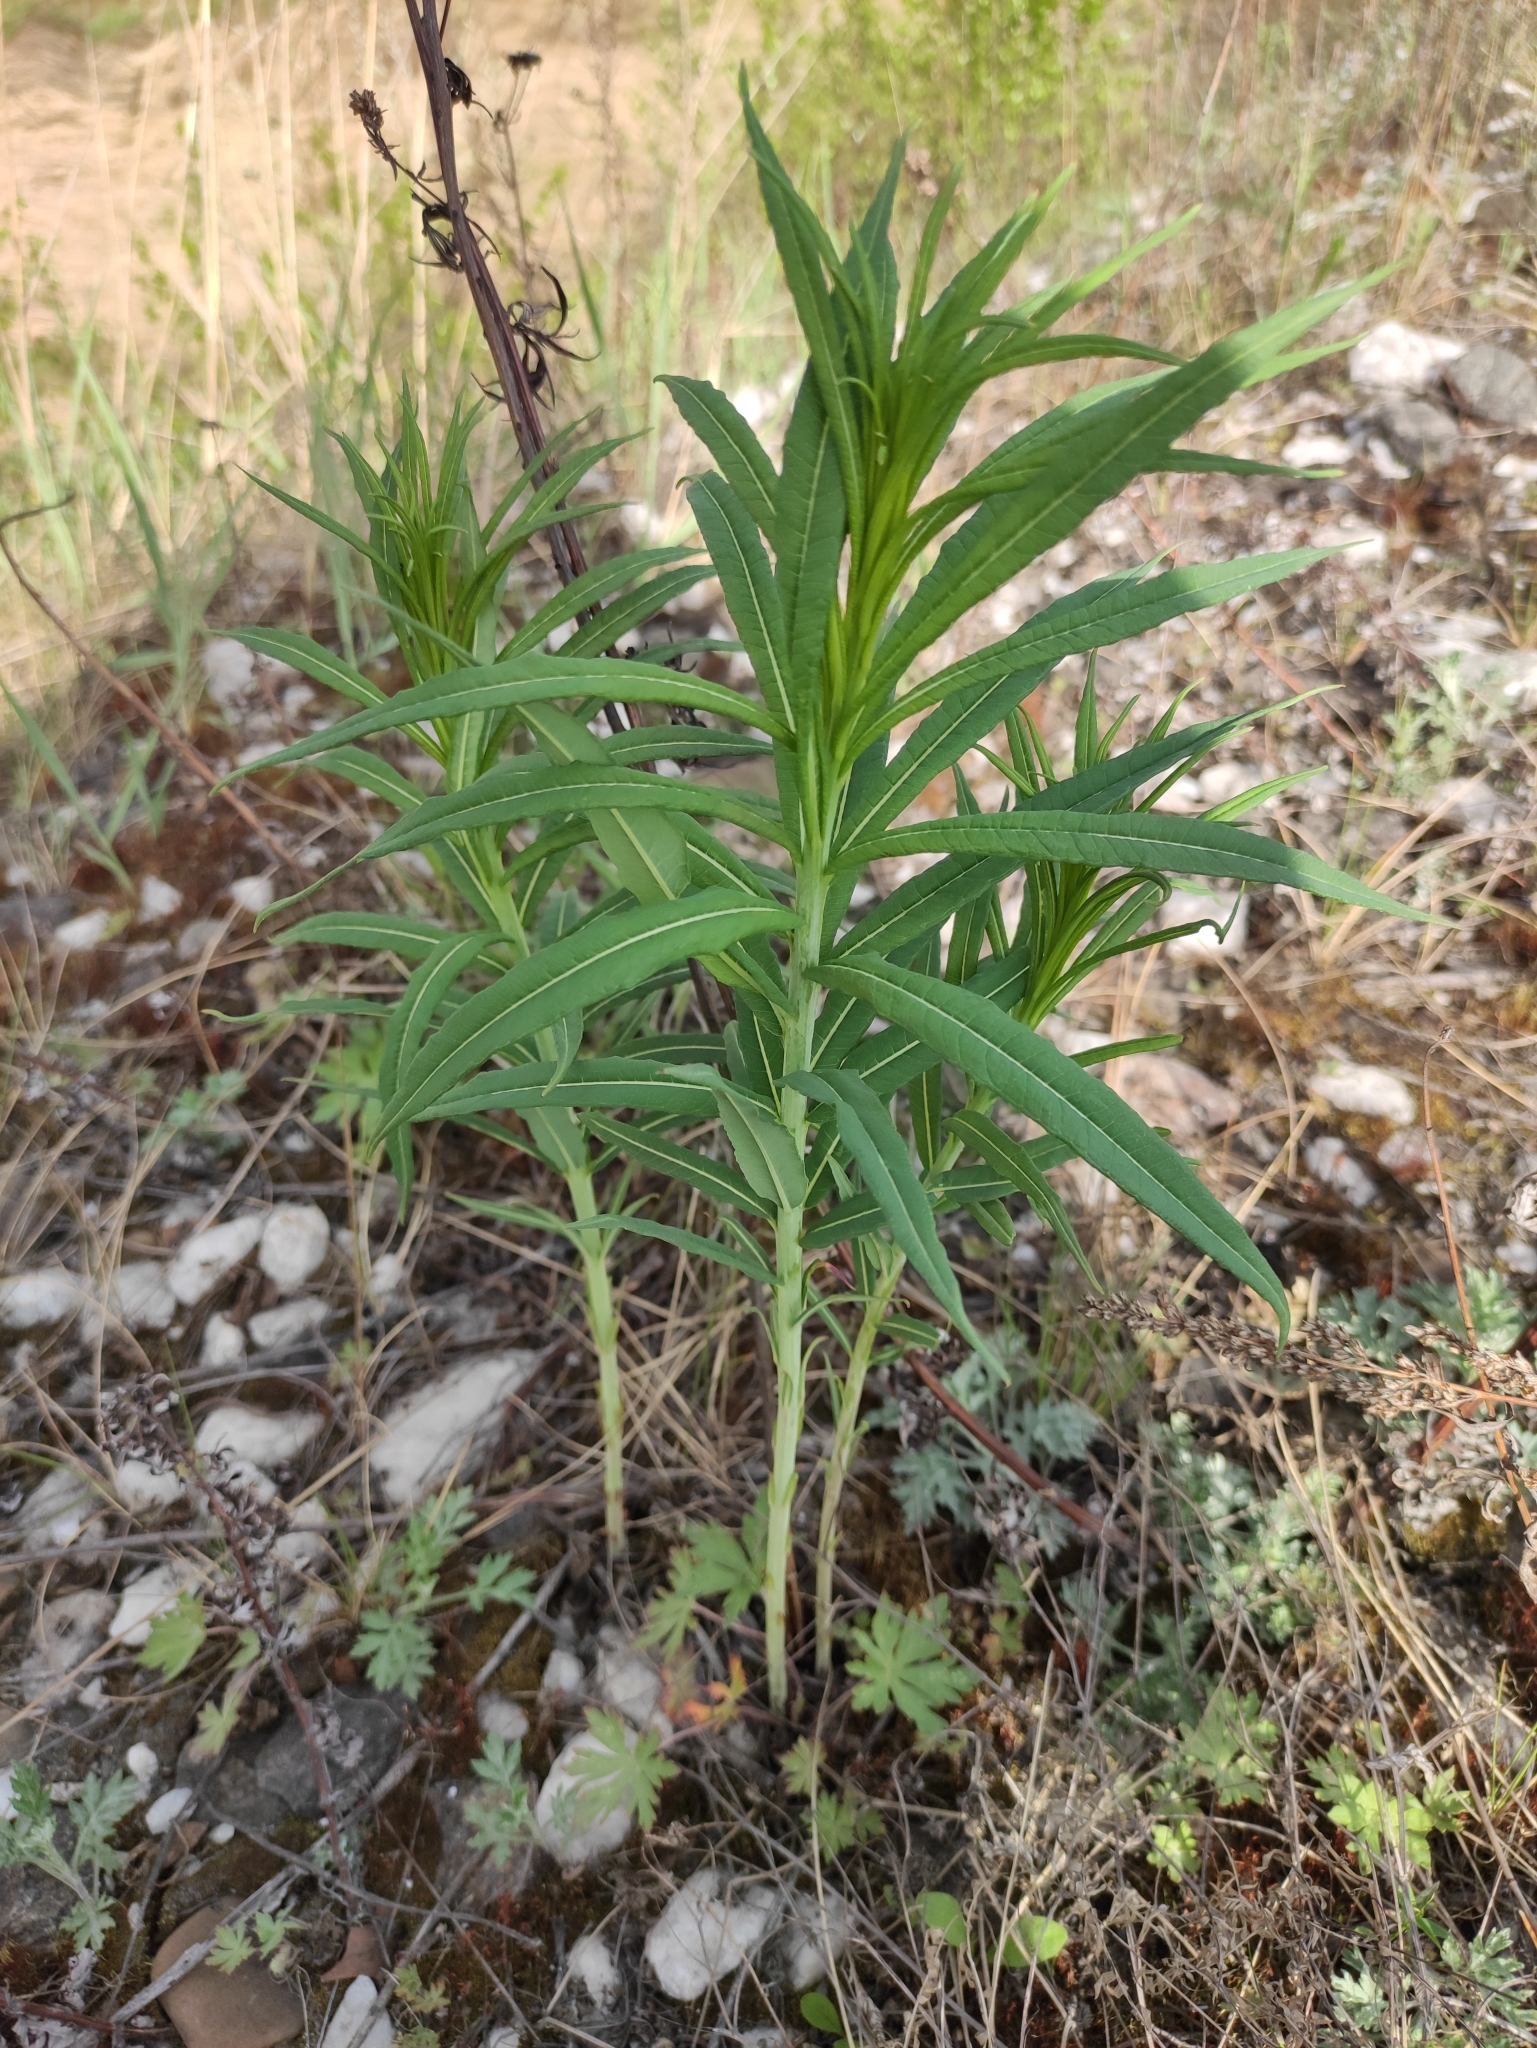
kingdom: Plantae
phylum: Tracheophyta
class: Magnoliopsida
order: Myrtales
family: Onagraceae
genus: Chamaenerion
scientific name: Chamaenerion angustifolium
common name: Fireweed
